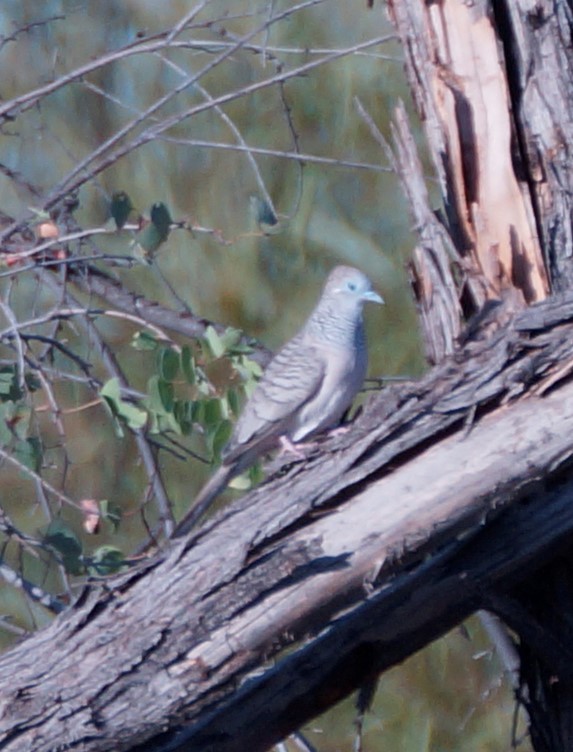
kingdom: Animalia
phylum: Chordata
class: Aves
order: Columbiformes
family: Columbidae
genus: Geopelia
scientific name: Geopelia placida
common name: Peaceful dove
